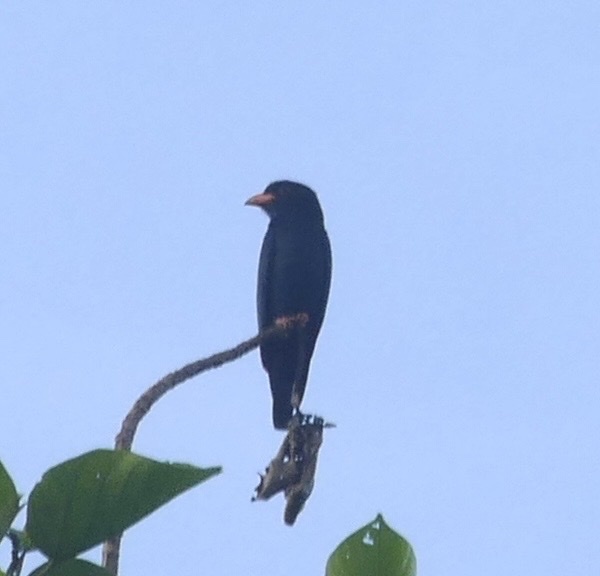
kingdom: Animalia
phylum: Chordata
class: Aves
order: Coraciiformes
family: Coraciidae
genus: Eurystomus
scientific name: Eurystomus orientalis
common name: Oriental dollarbird
